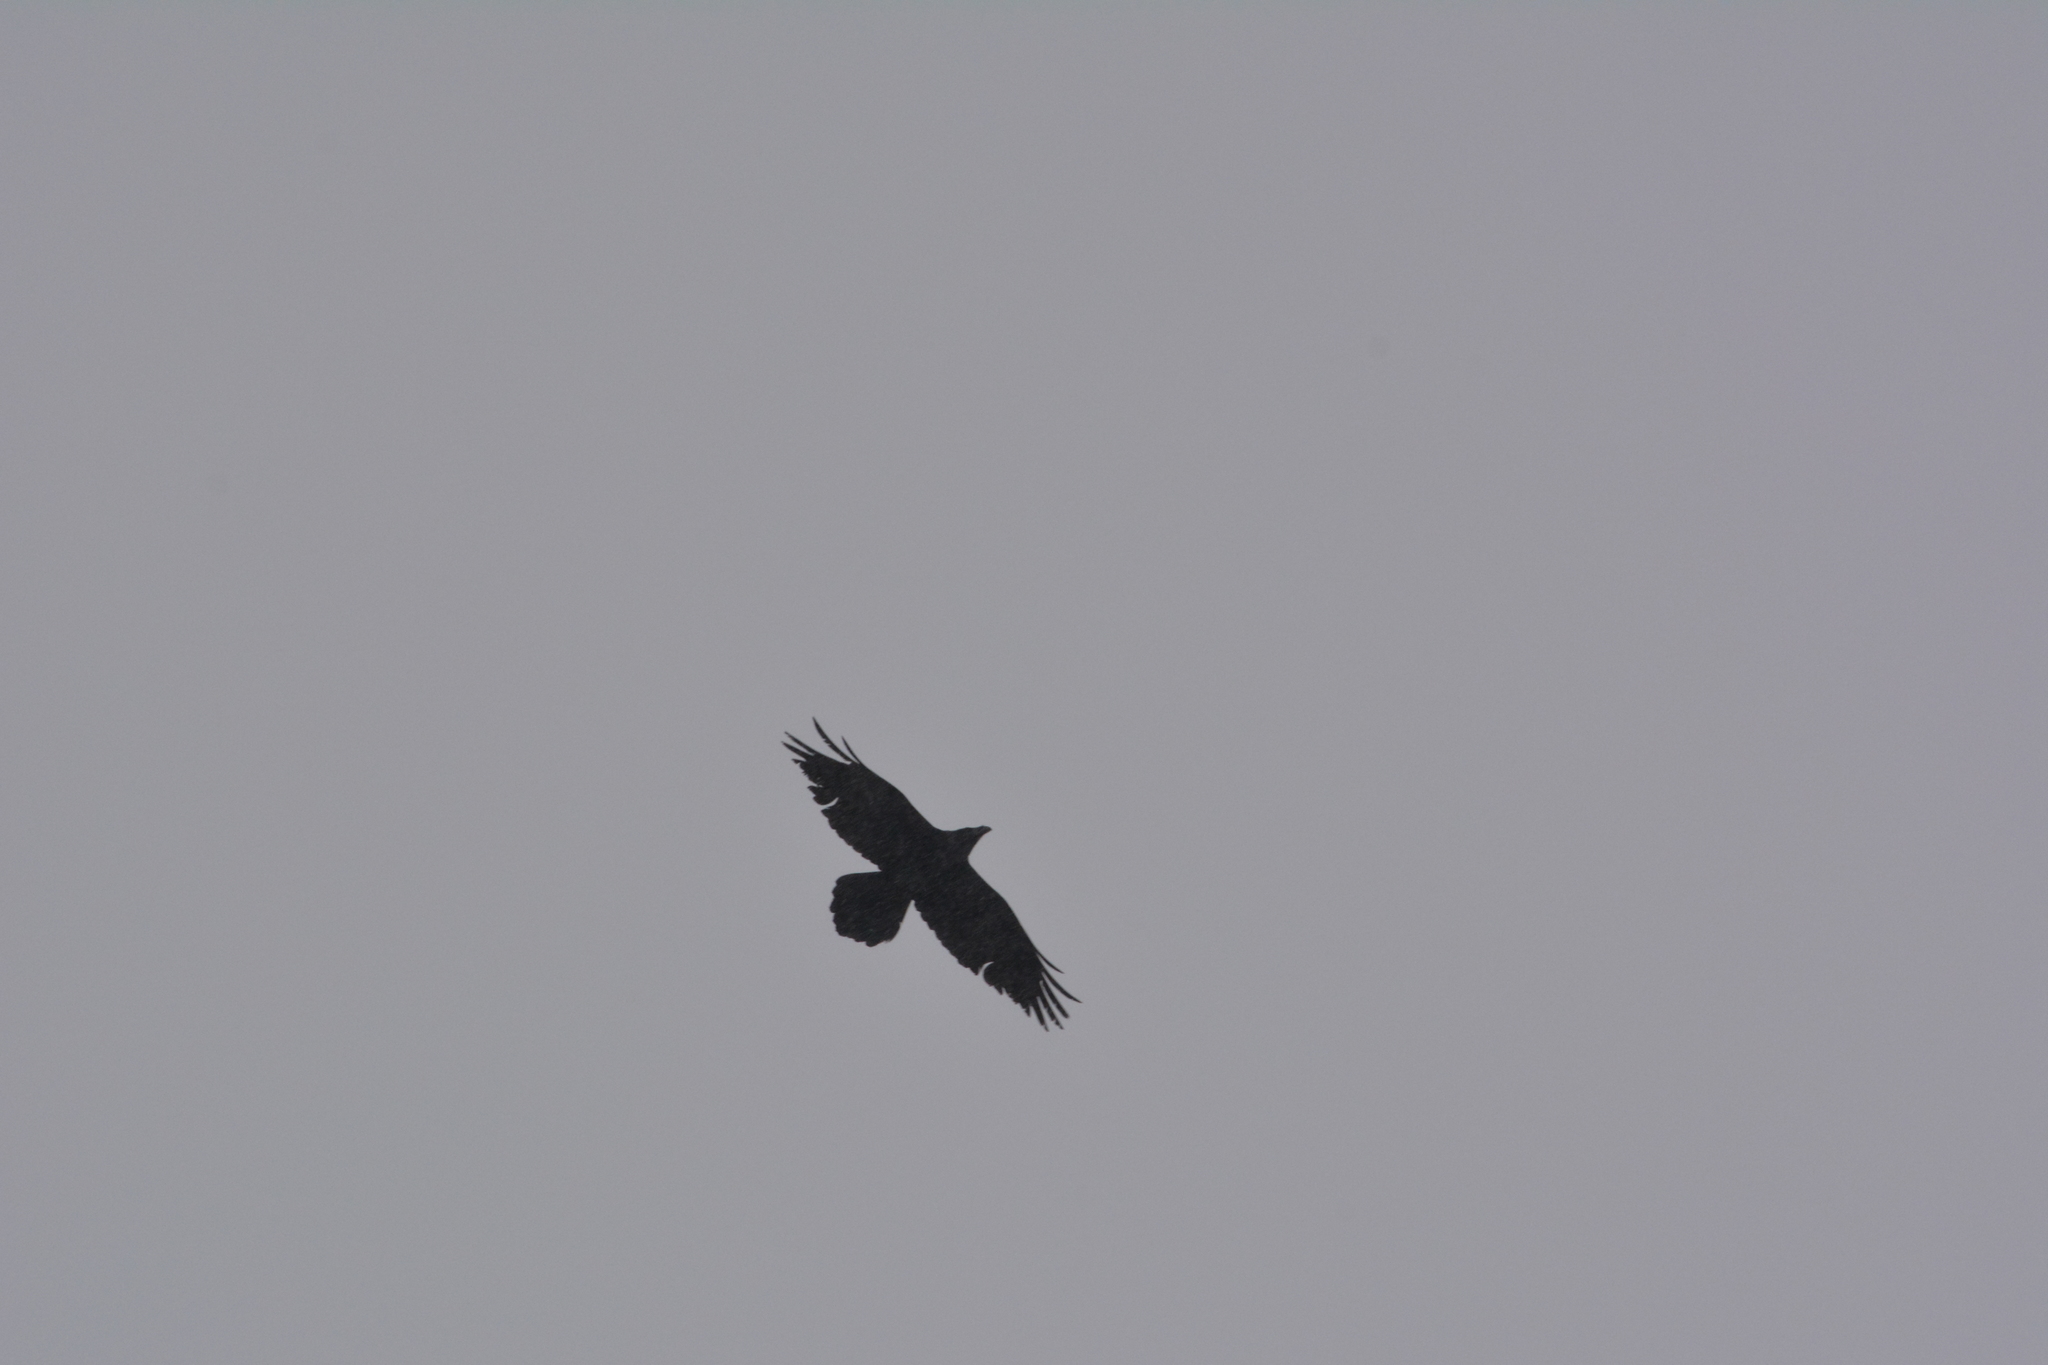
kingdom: Animalia
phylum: Chordata
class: Aves
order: Passeriformes
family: Corvidae
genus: Corvus
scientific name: Corvus corax
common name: Common raven
